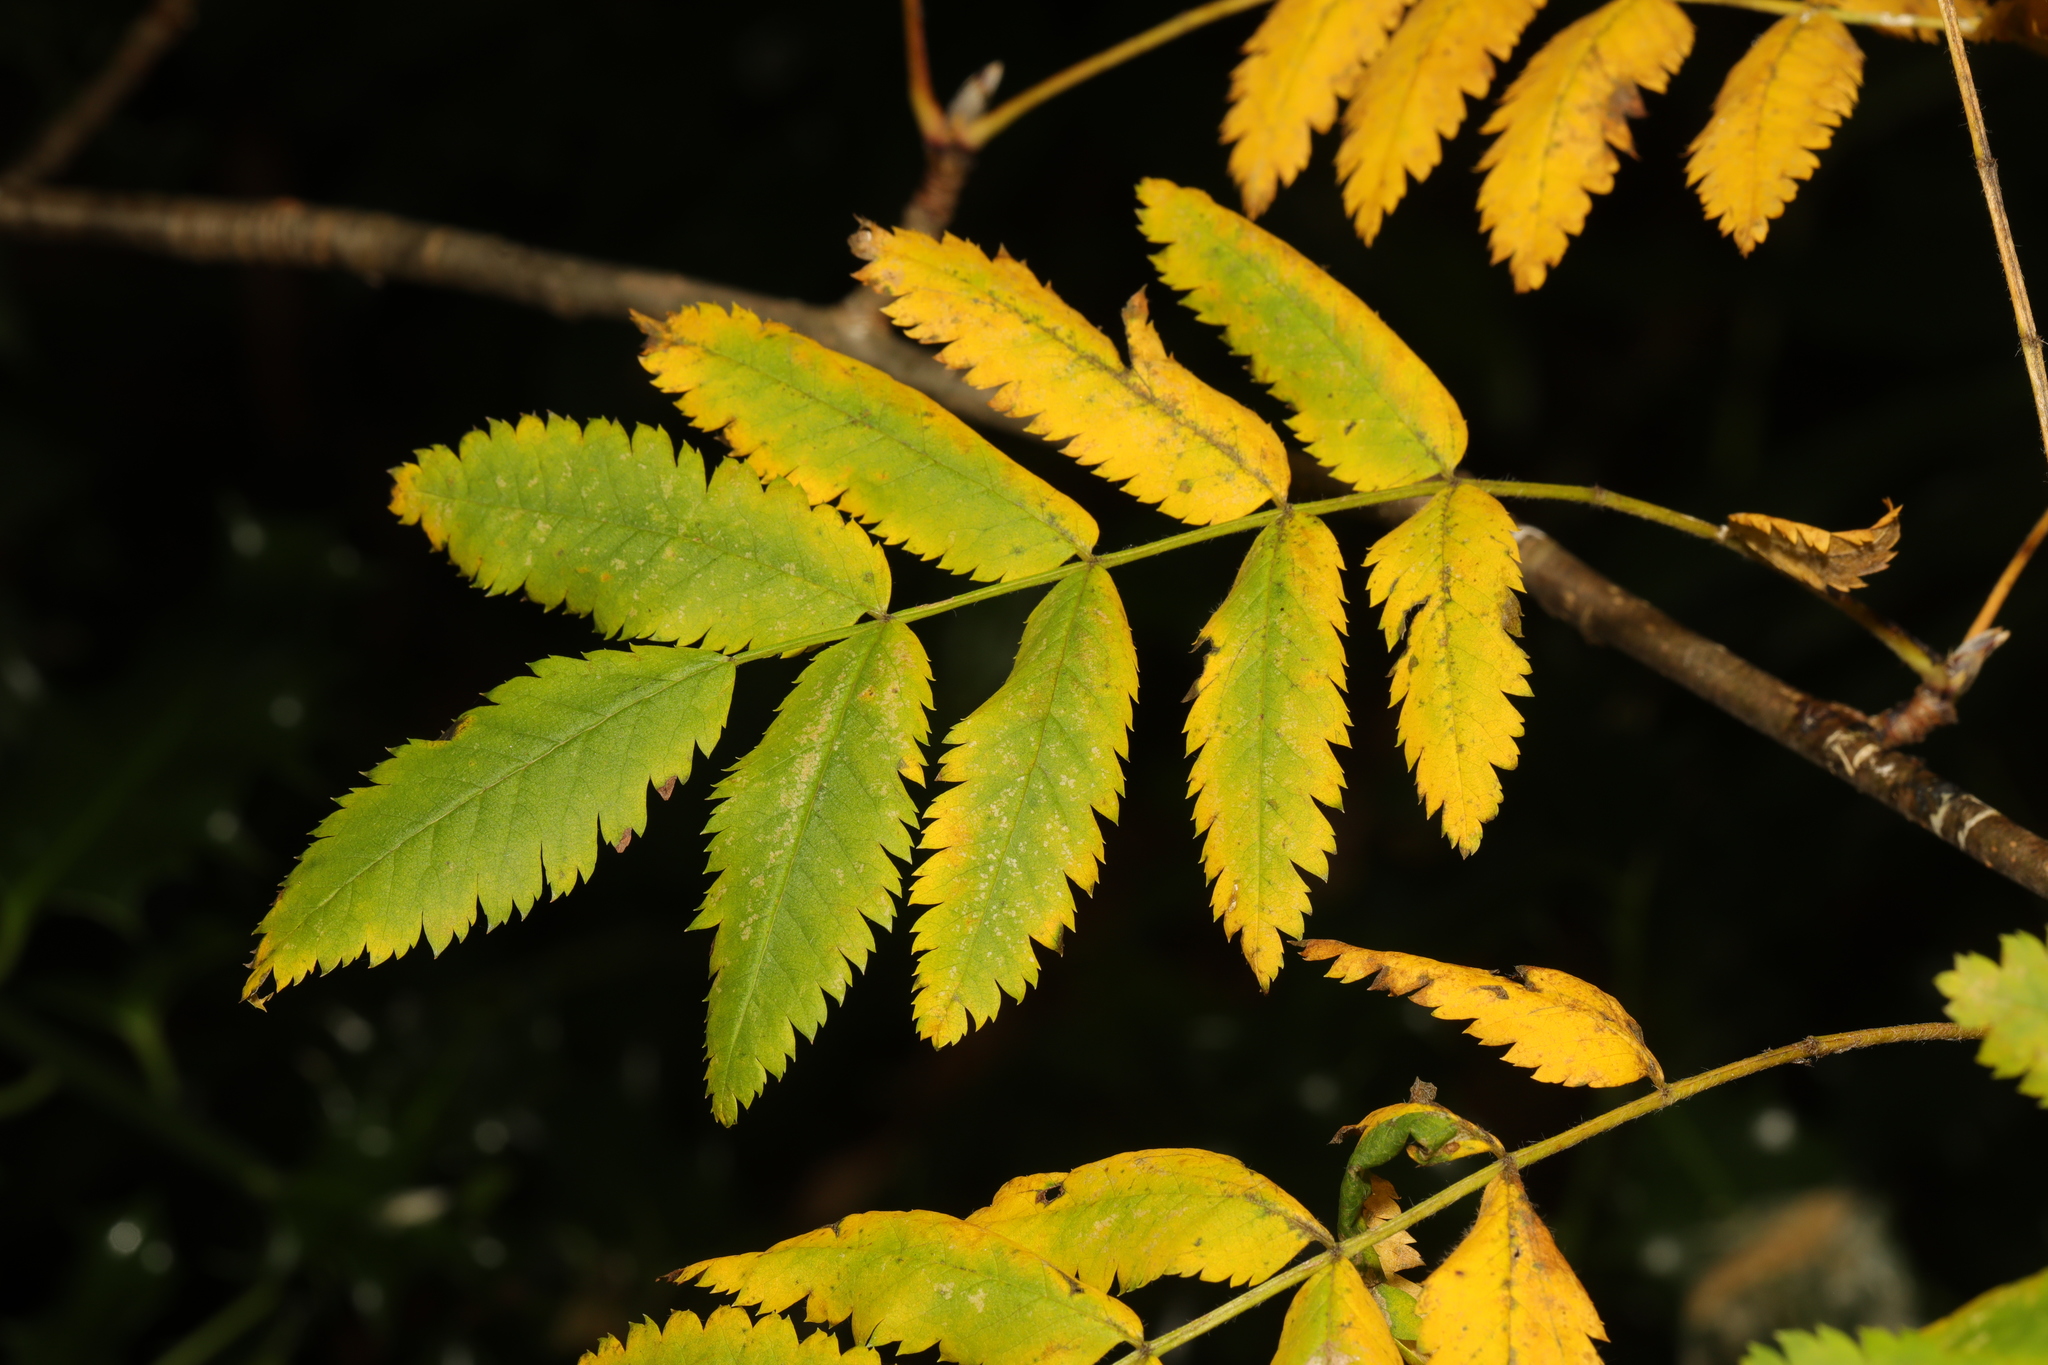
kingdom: Plantae
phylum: Tracheophyta
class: Magnoliopsida
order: Rosales
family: Rosaceae
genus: Sorbus
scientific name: Sorbus aucuparia
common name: Rowan
